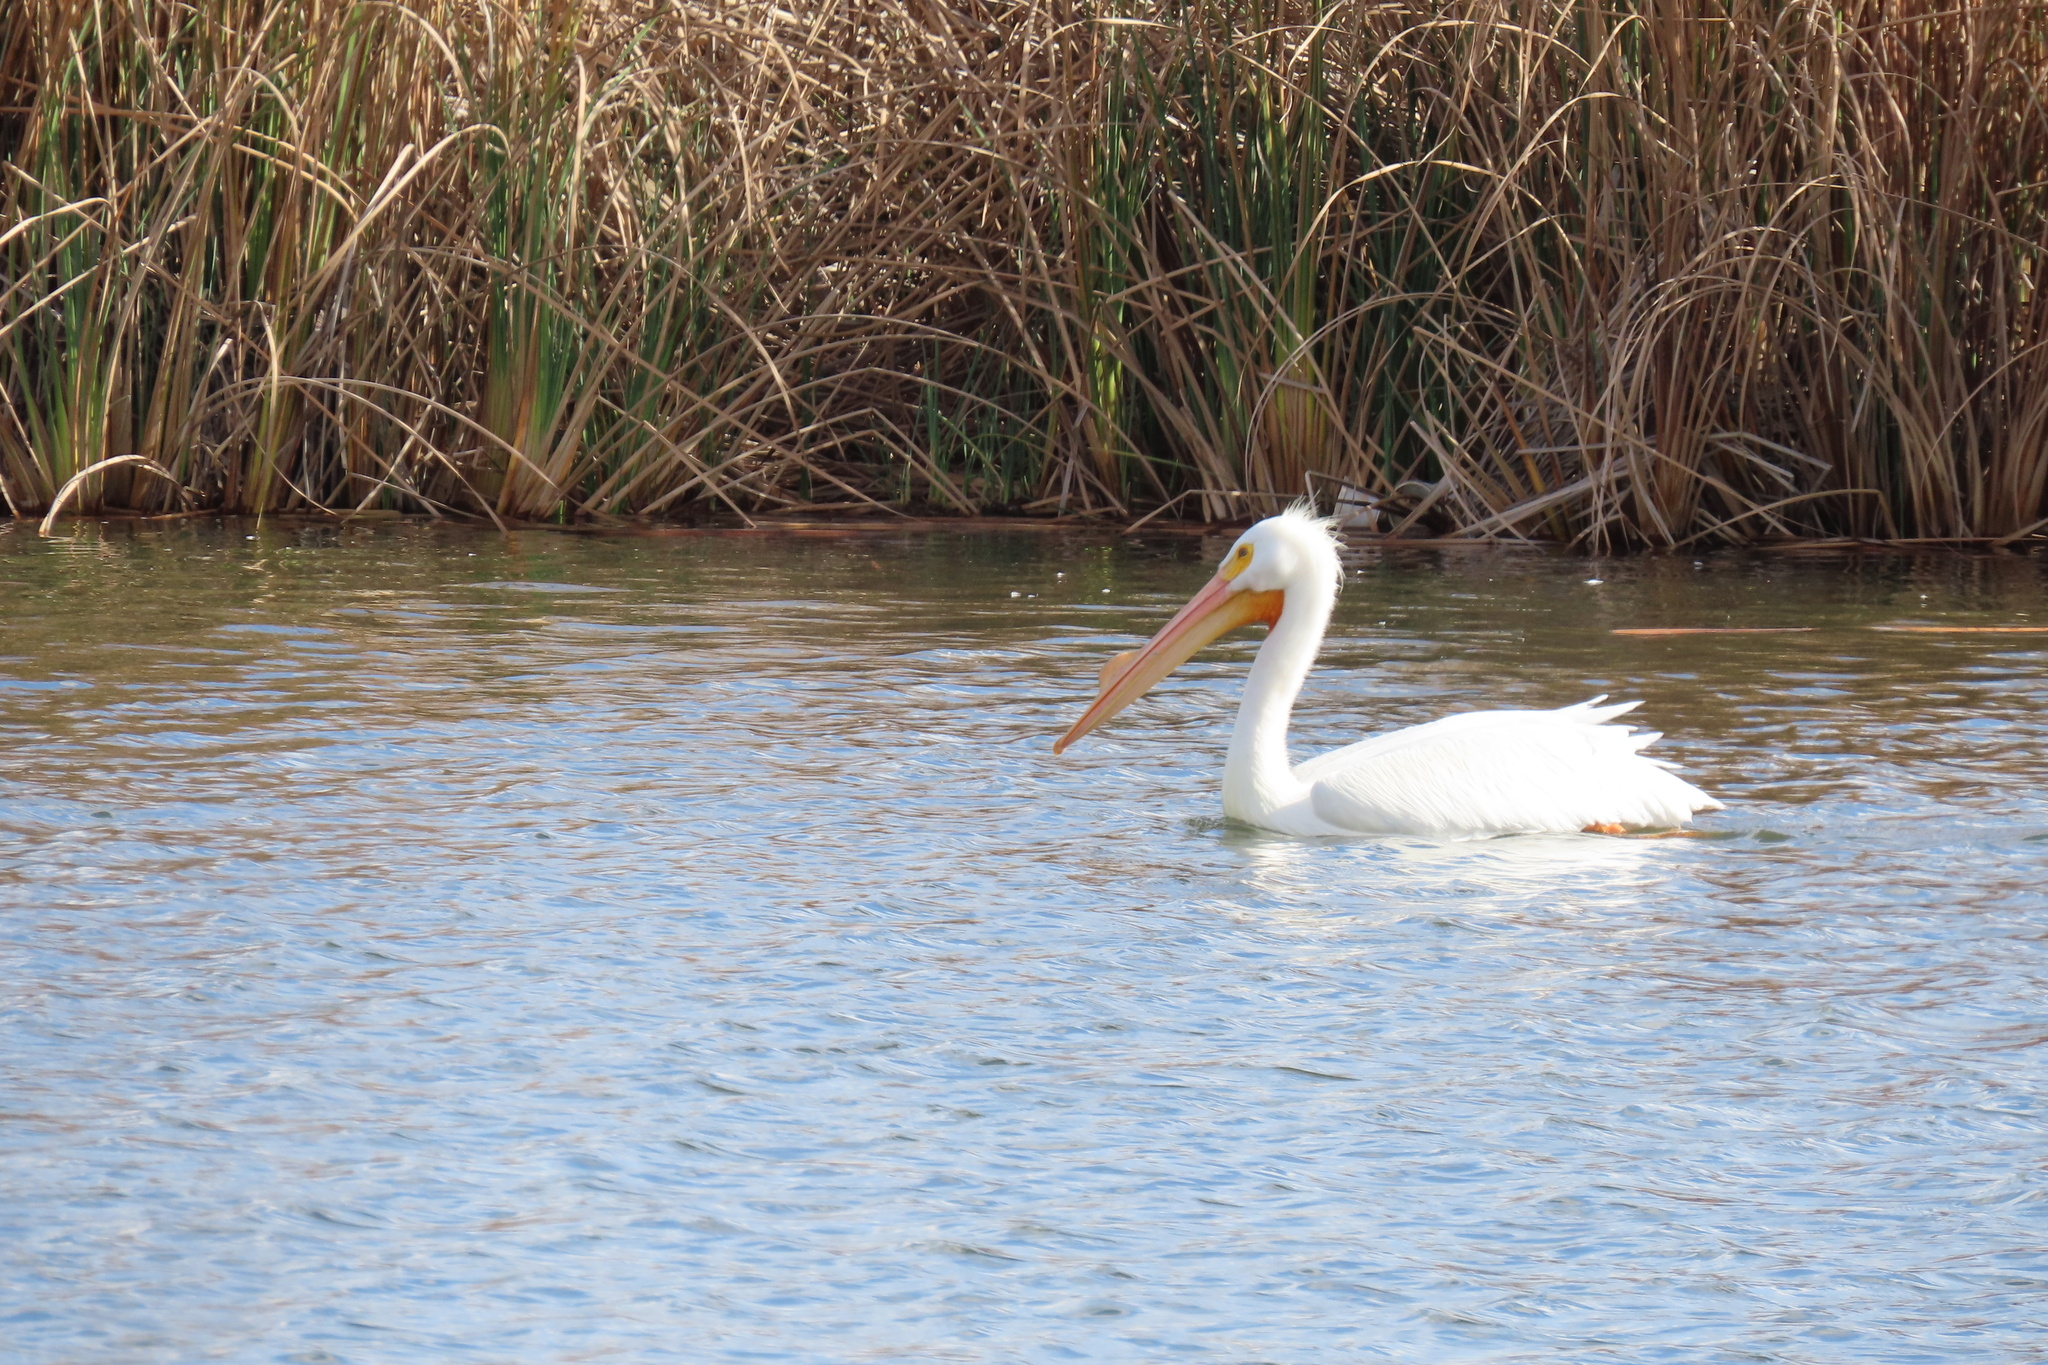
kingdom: Animalia
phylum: Chordata
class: Aves
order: Pelecaniformes
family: Pelecanidae
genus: Pelecanus
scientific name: Pelecanus erythrorhynchos
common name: American white pelican
